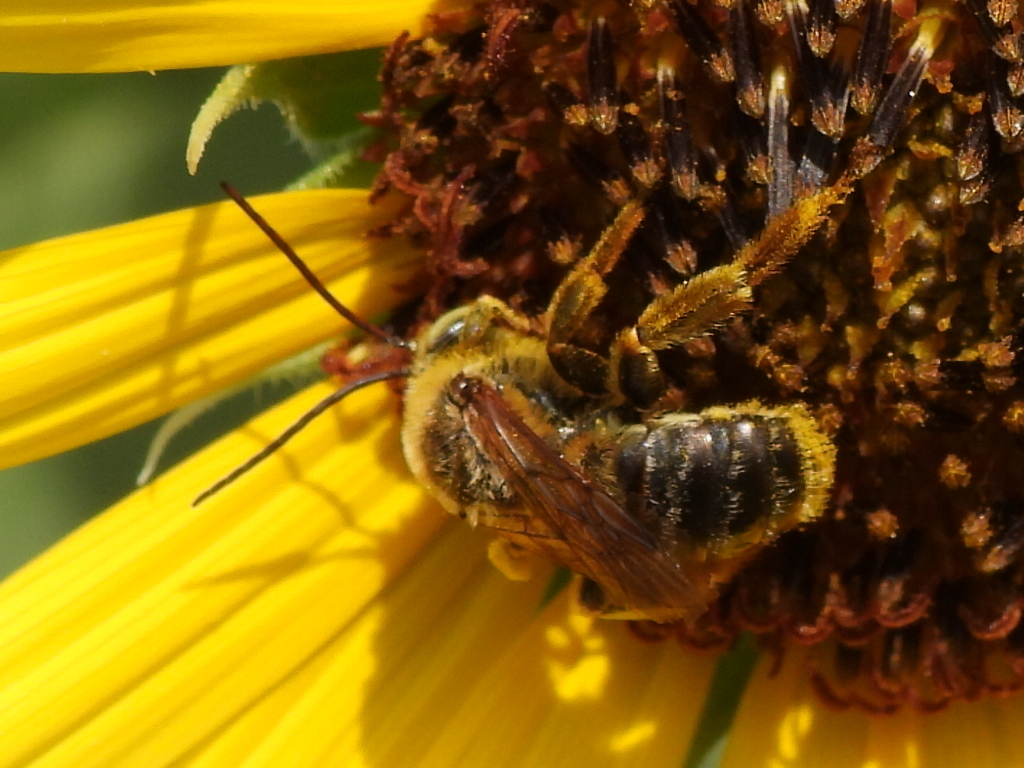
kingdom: Animalia
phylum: Arthropoda
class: Insecta
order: Hymenoptera
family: Apidae
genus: Svastra
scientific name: Svastra obliqua
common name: Oblique longhorn
